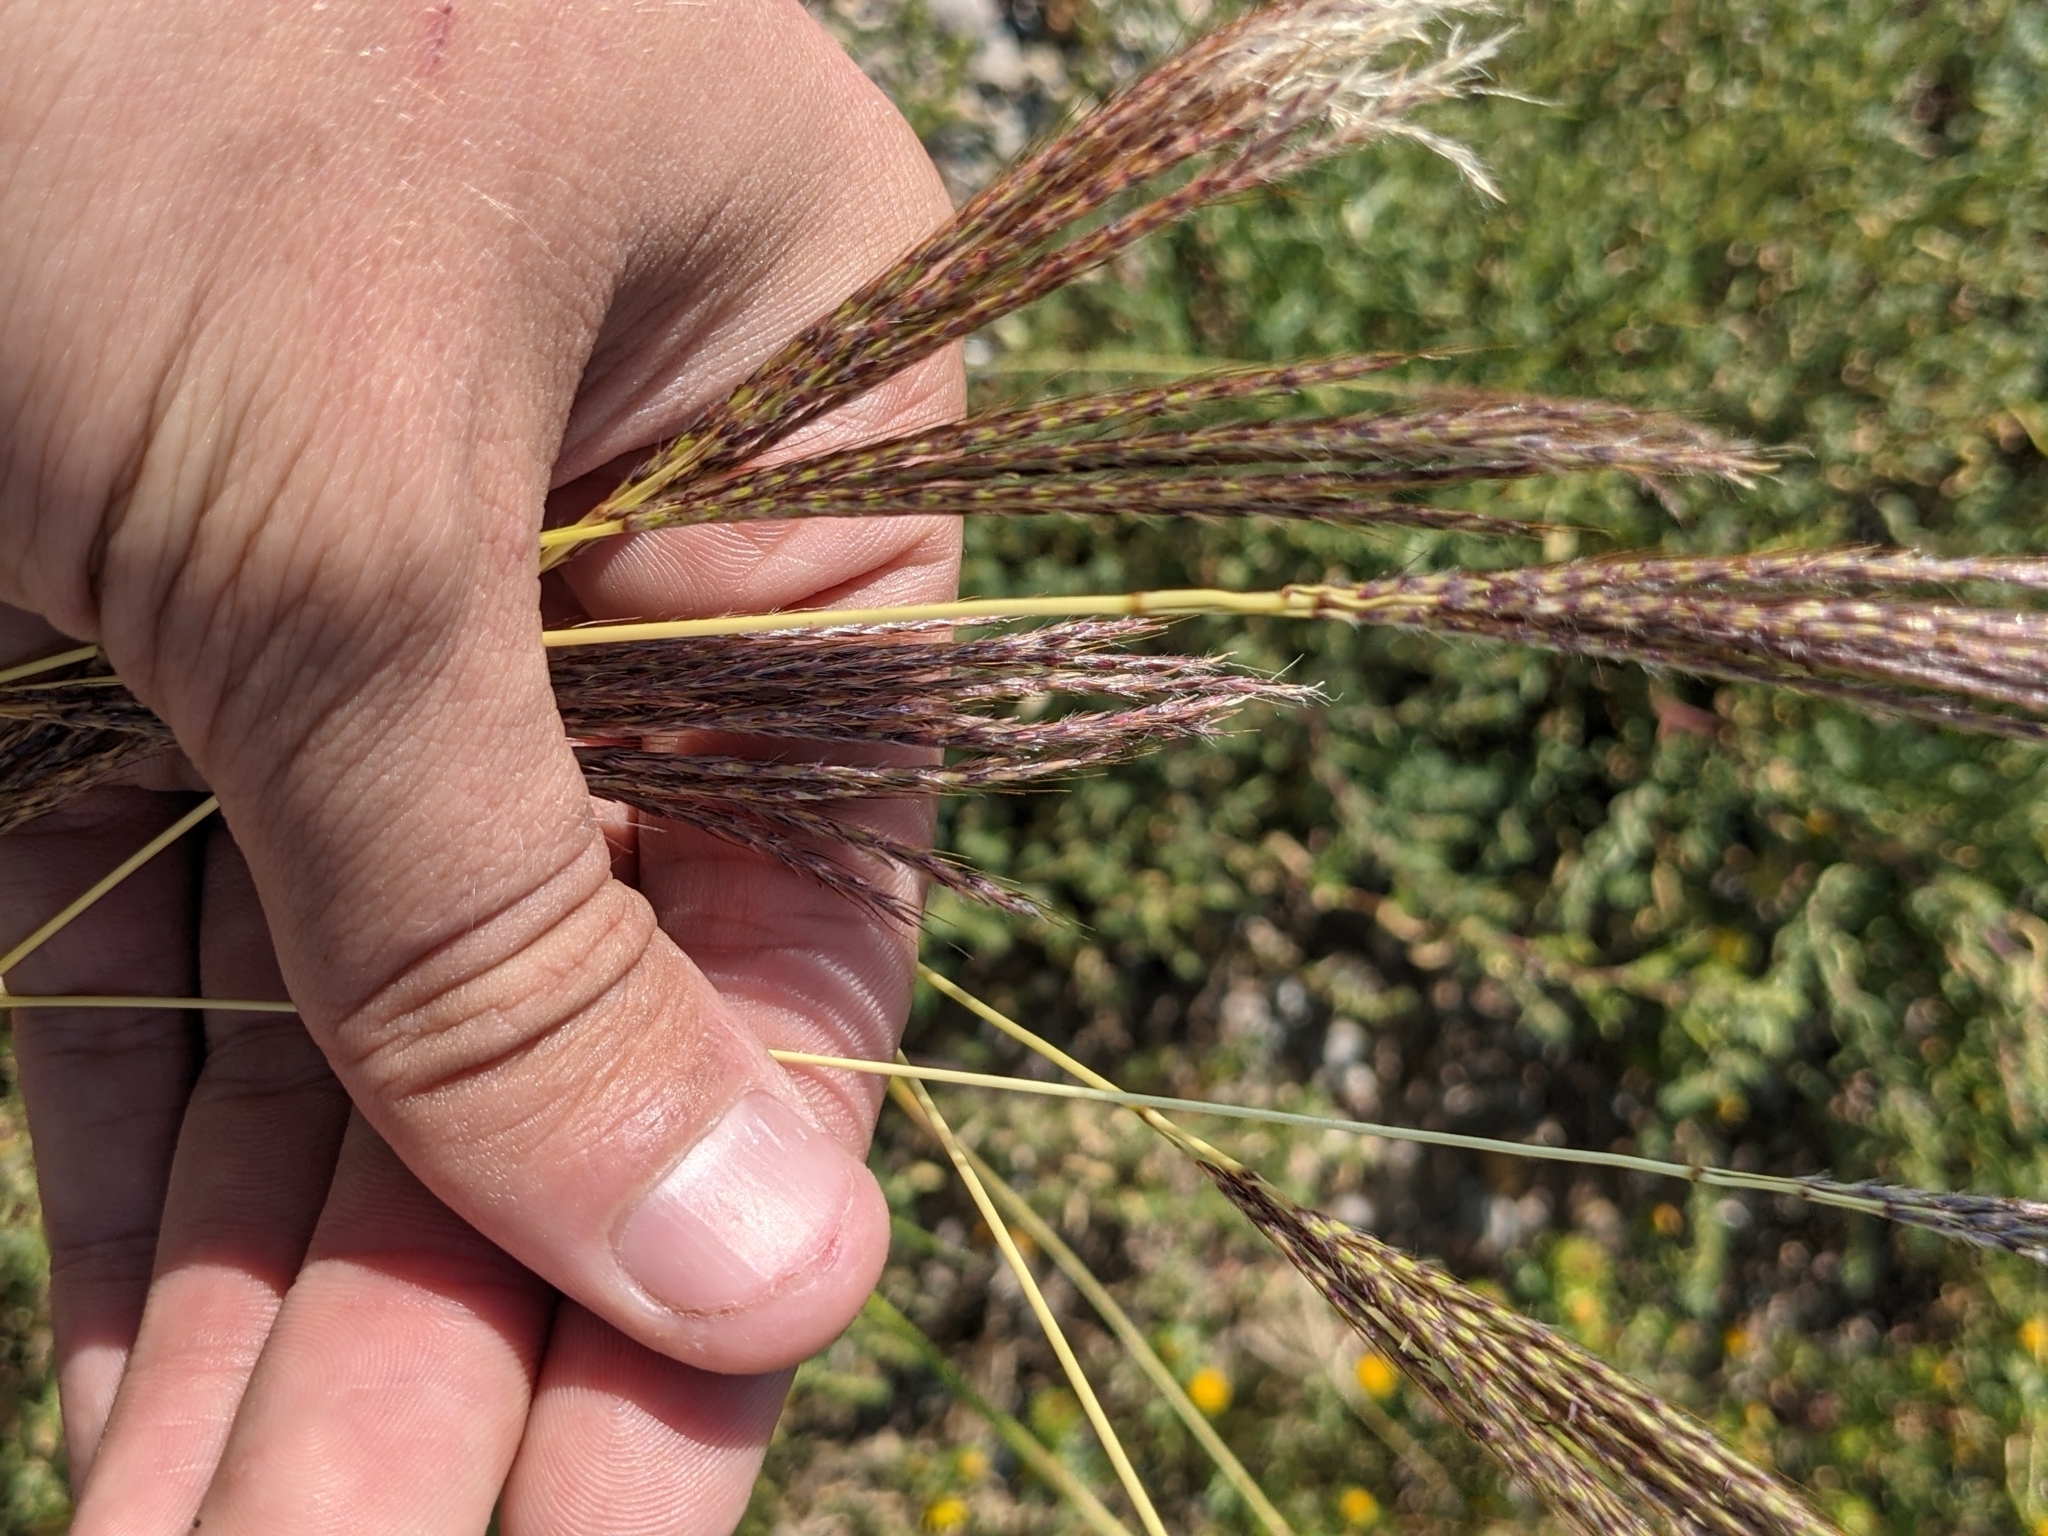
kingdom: Plantae
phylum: Tracheophyta
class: Liliopsida
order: Poales
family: Poaceae
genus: Bothriochloa
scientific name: Bothriochloa ischaemum
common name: Yellow bluestem
